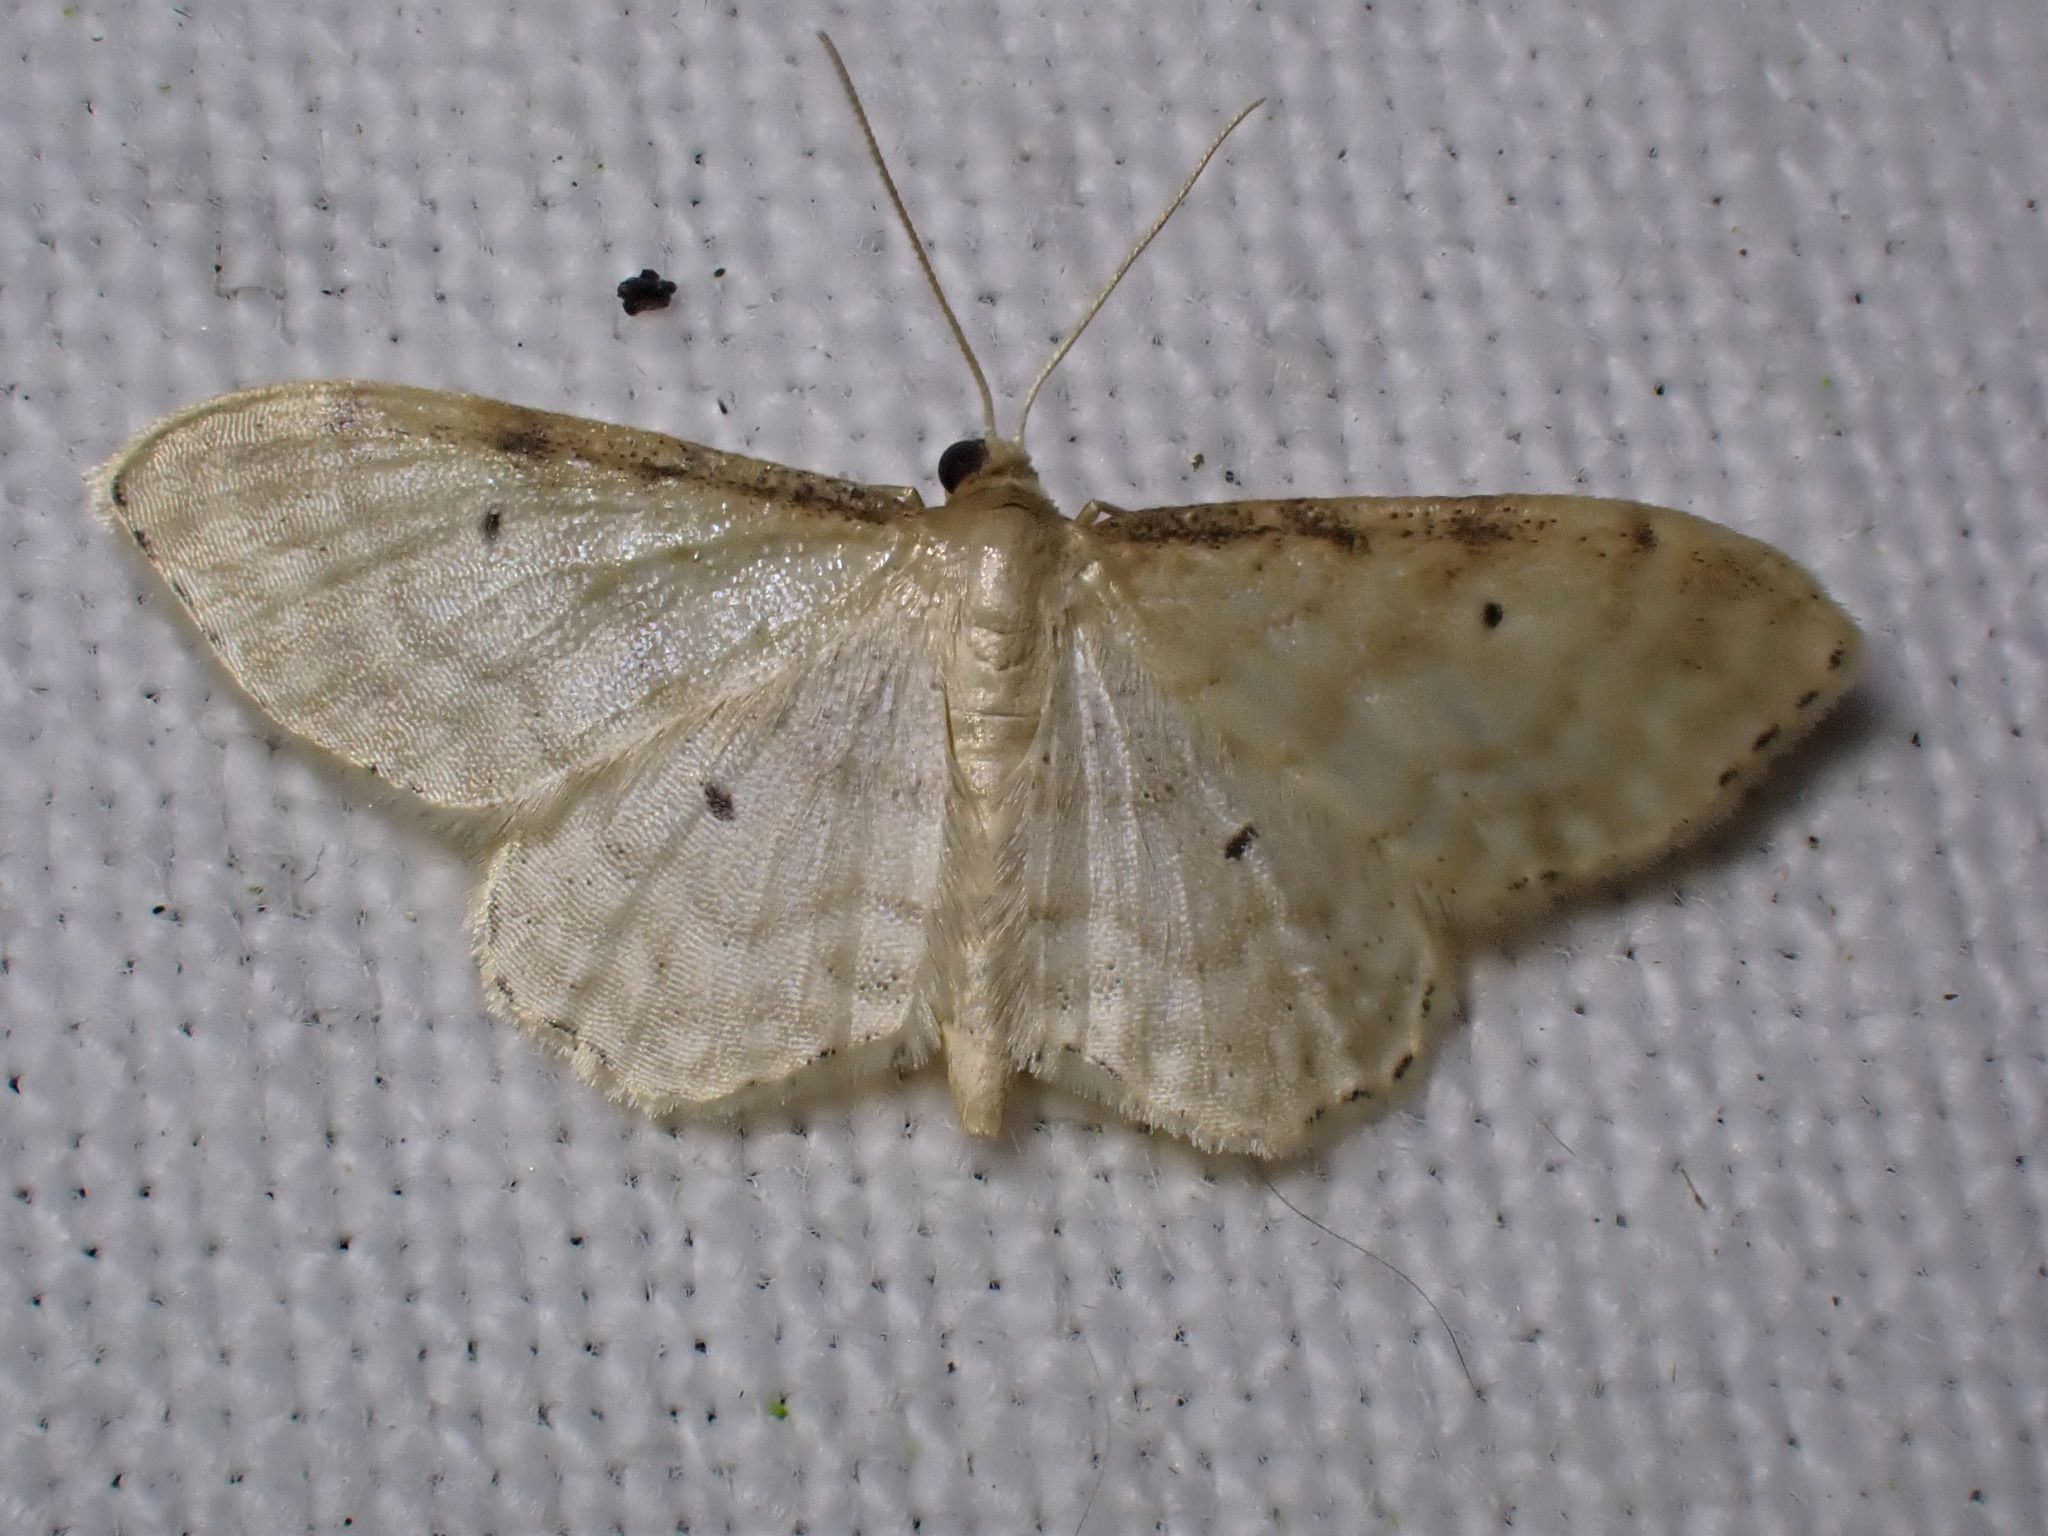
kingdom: Animalia
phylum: Arthropoda
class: Insecta
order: Lepidoptera
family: Geometridae
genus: Idaea
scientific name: Idaea fuscovenosa
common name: Dwarf cream wave
